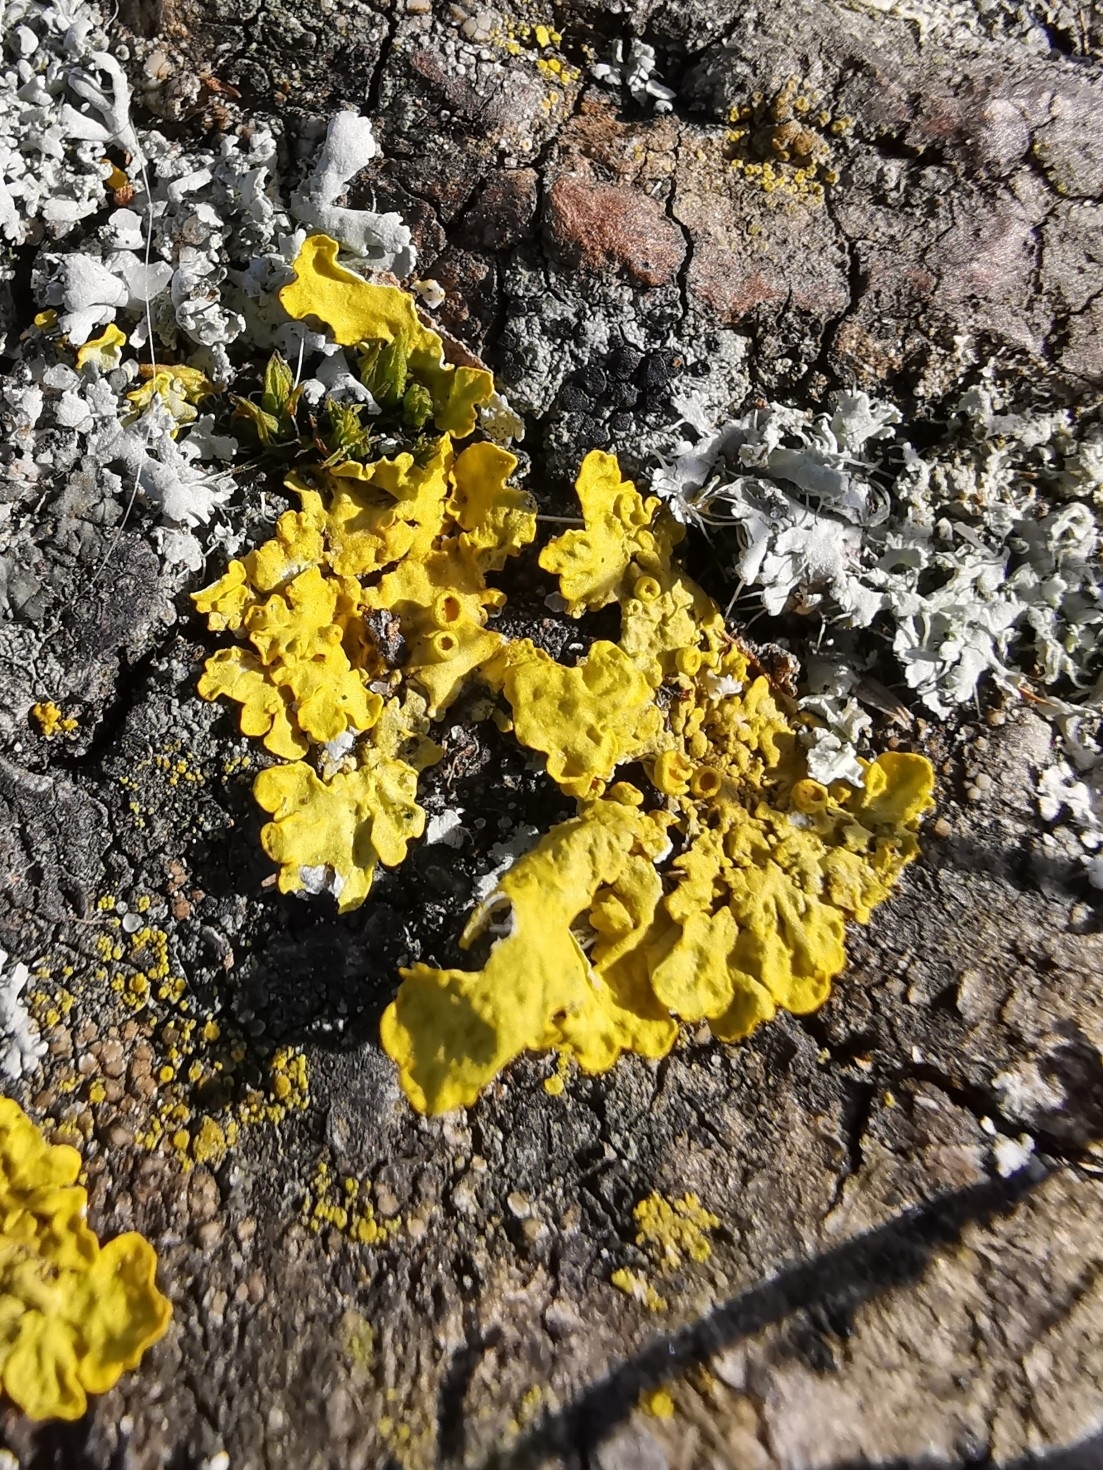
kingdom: Fungi
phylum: Ascomycota
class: Lecanoromycetes
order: Teloschistales
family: Teloschistaceae
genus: Xanthoria
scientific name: Xanthoria parietina
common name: Common orange lichen
